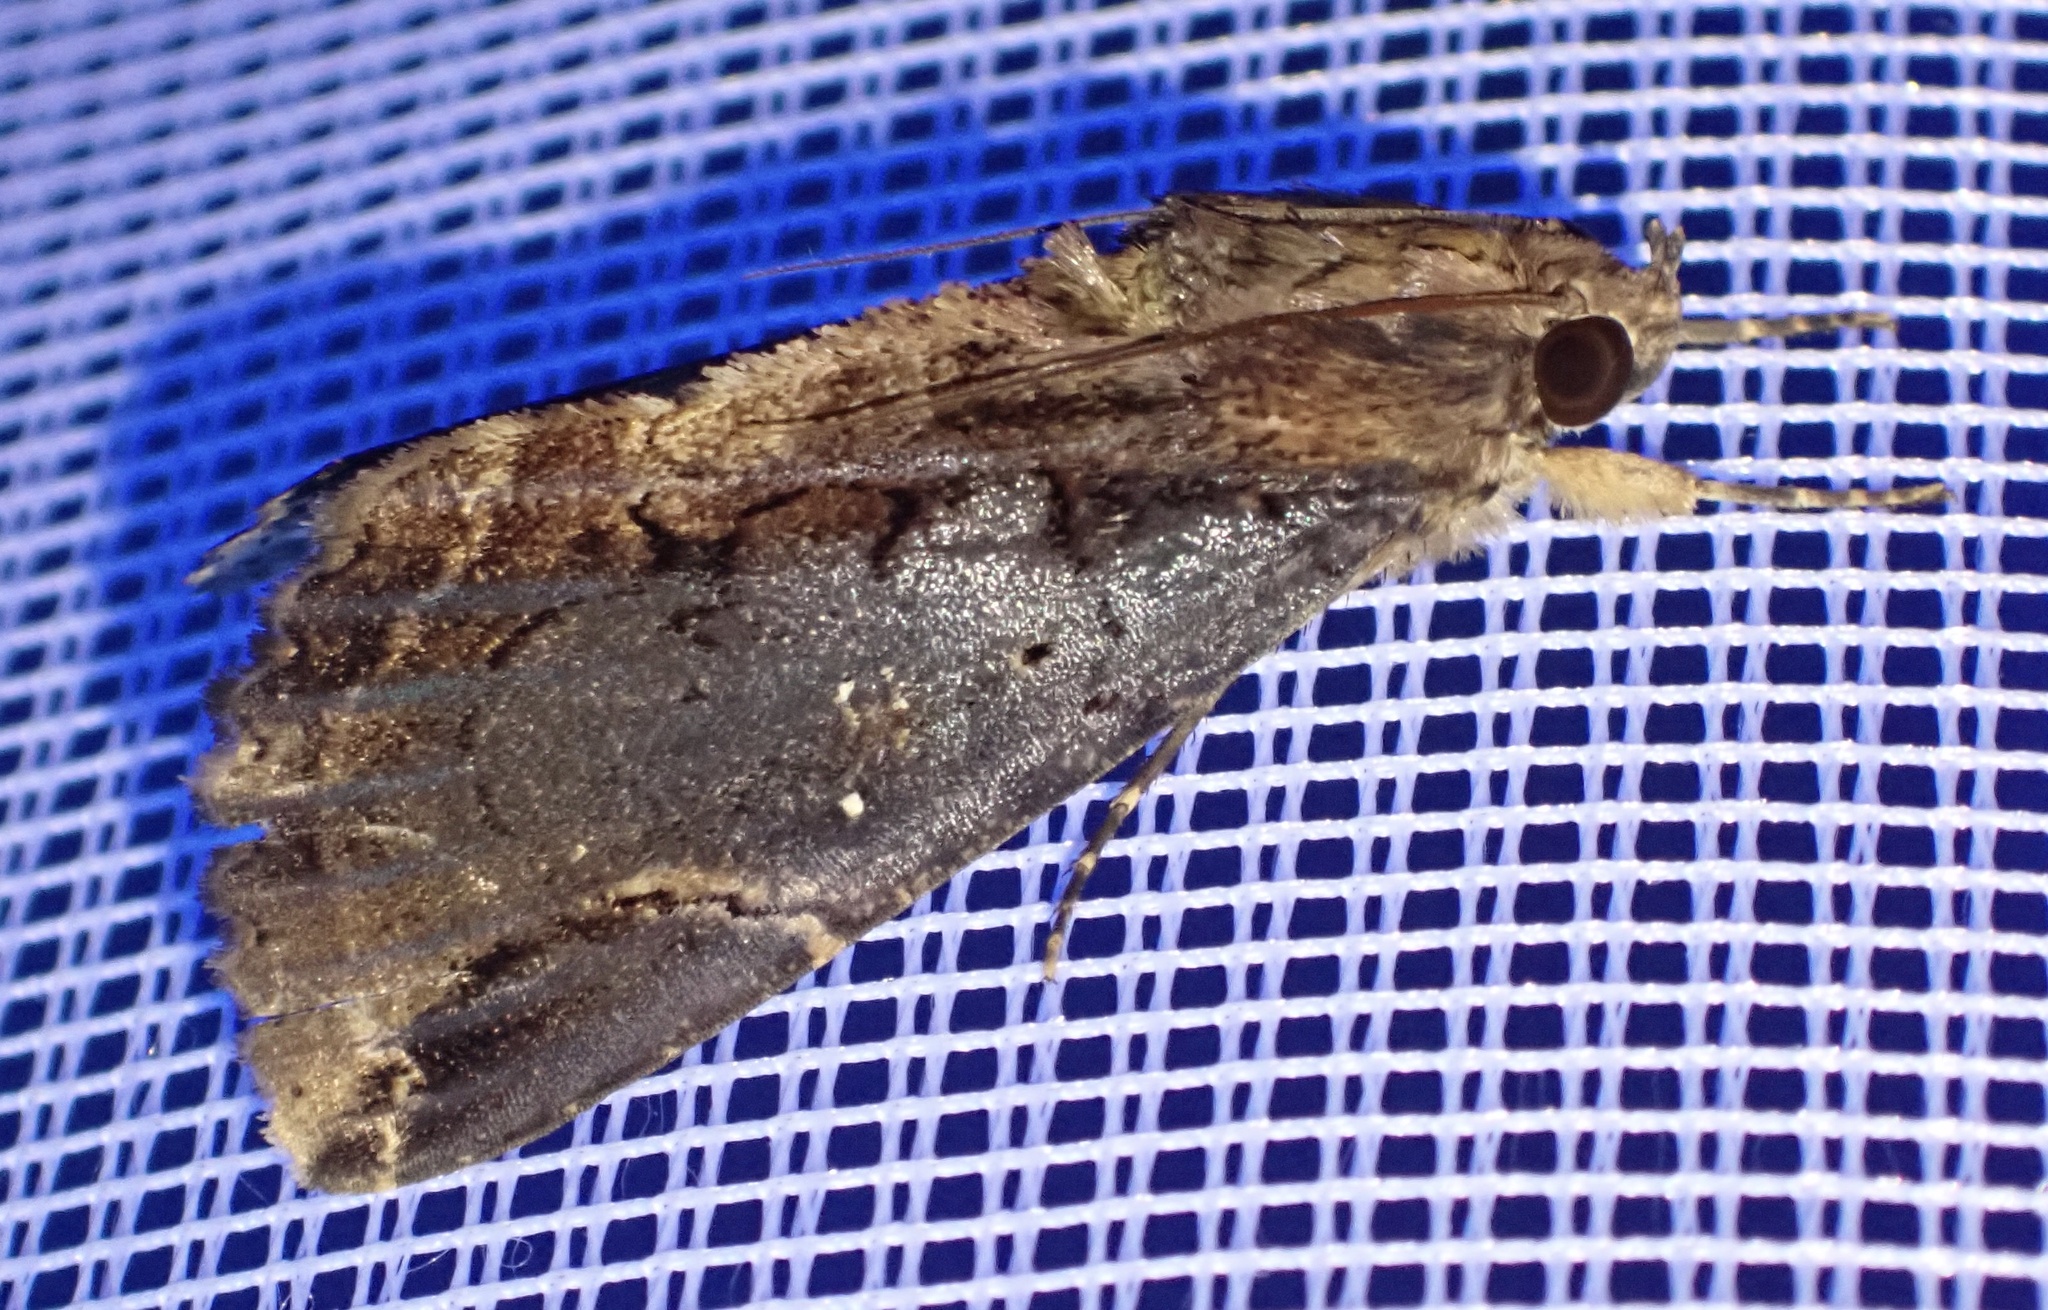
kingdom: Animalia
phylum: Arthropoda
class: Insecta
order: Lepidoptera
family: Erebidae
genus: Ercheia
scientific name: Ercheia dubia
